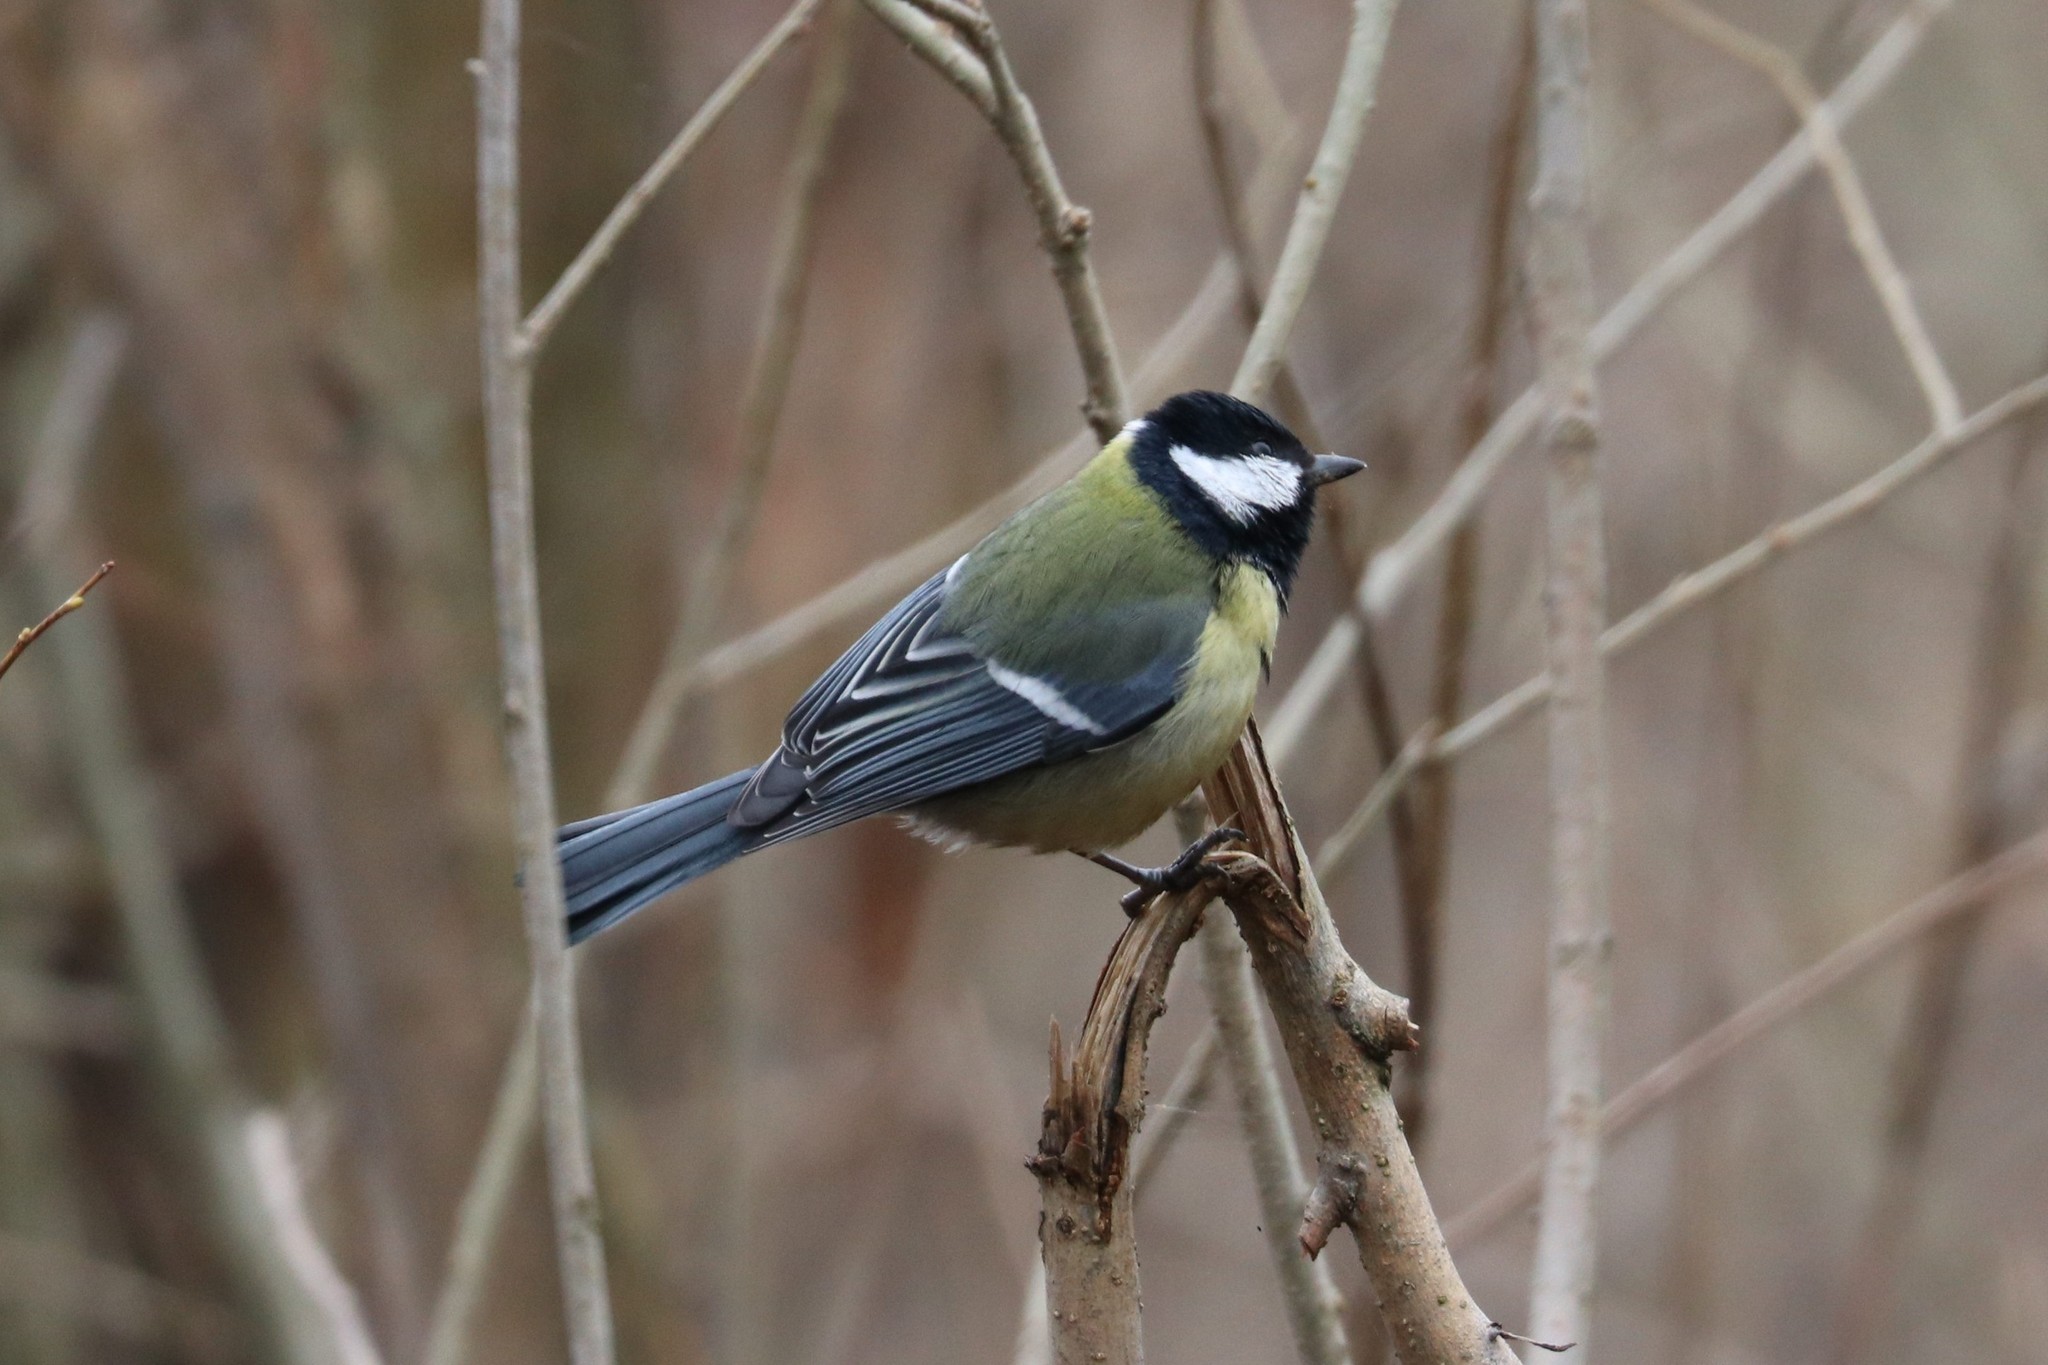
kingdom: Animalia
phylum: Chordata
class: Aves
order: Passeriformes
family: Paridae
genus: Parus
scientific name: Parus major
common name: Great tit
